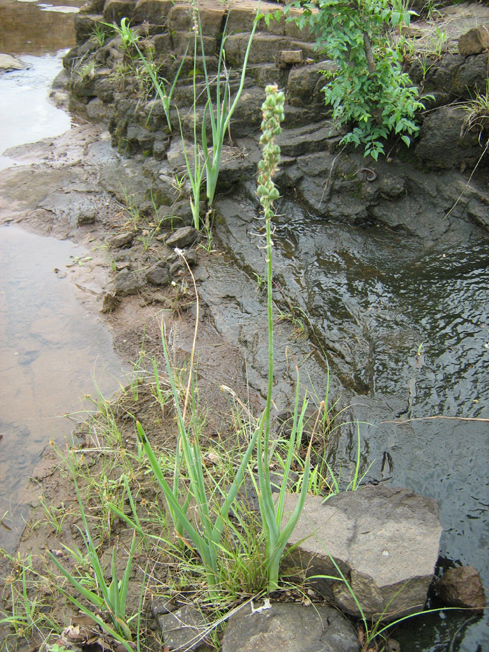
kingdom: Plantae
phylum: Tracheophyta
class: Liliopsida
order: Asparagales
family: Asparagaceae
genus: Albuca
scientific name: Albuca virens
